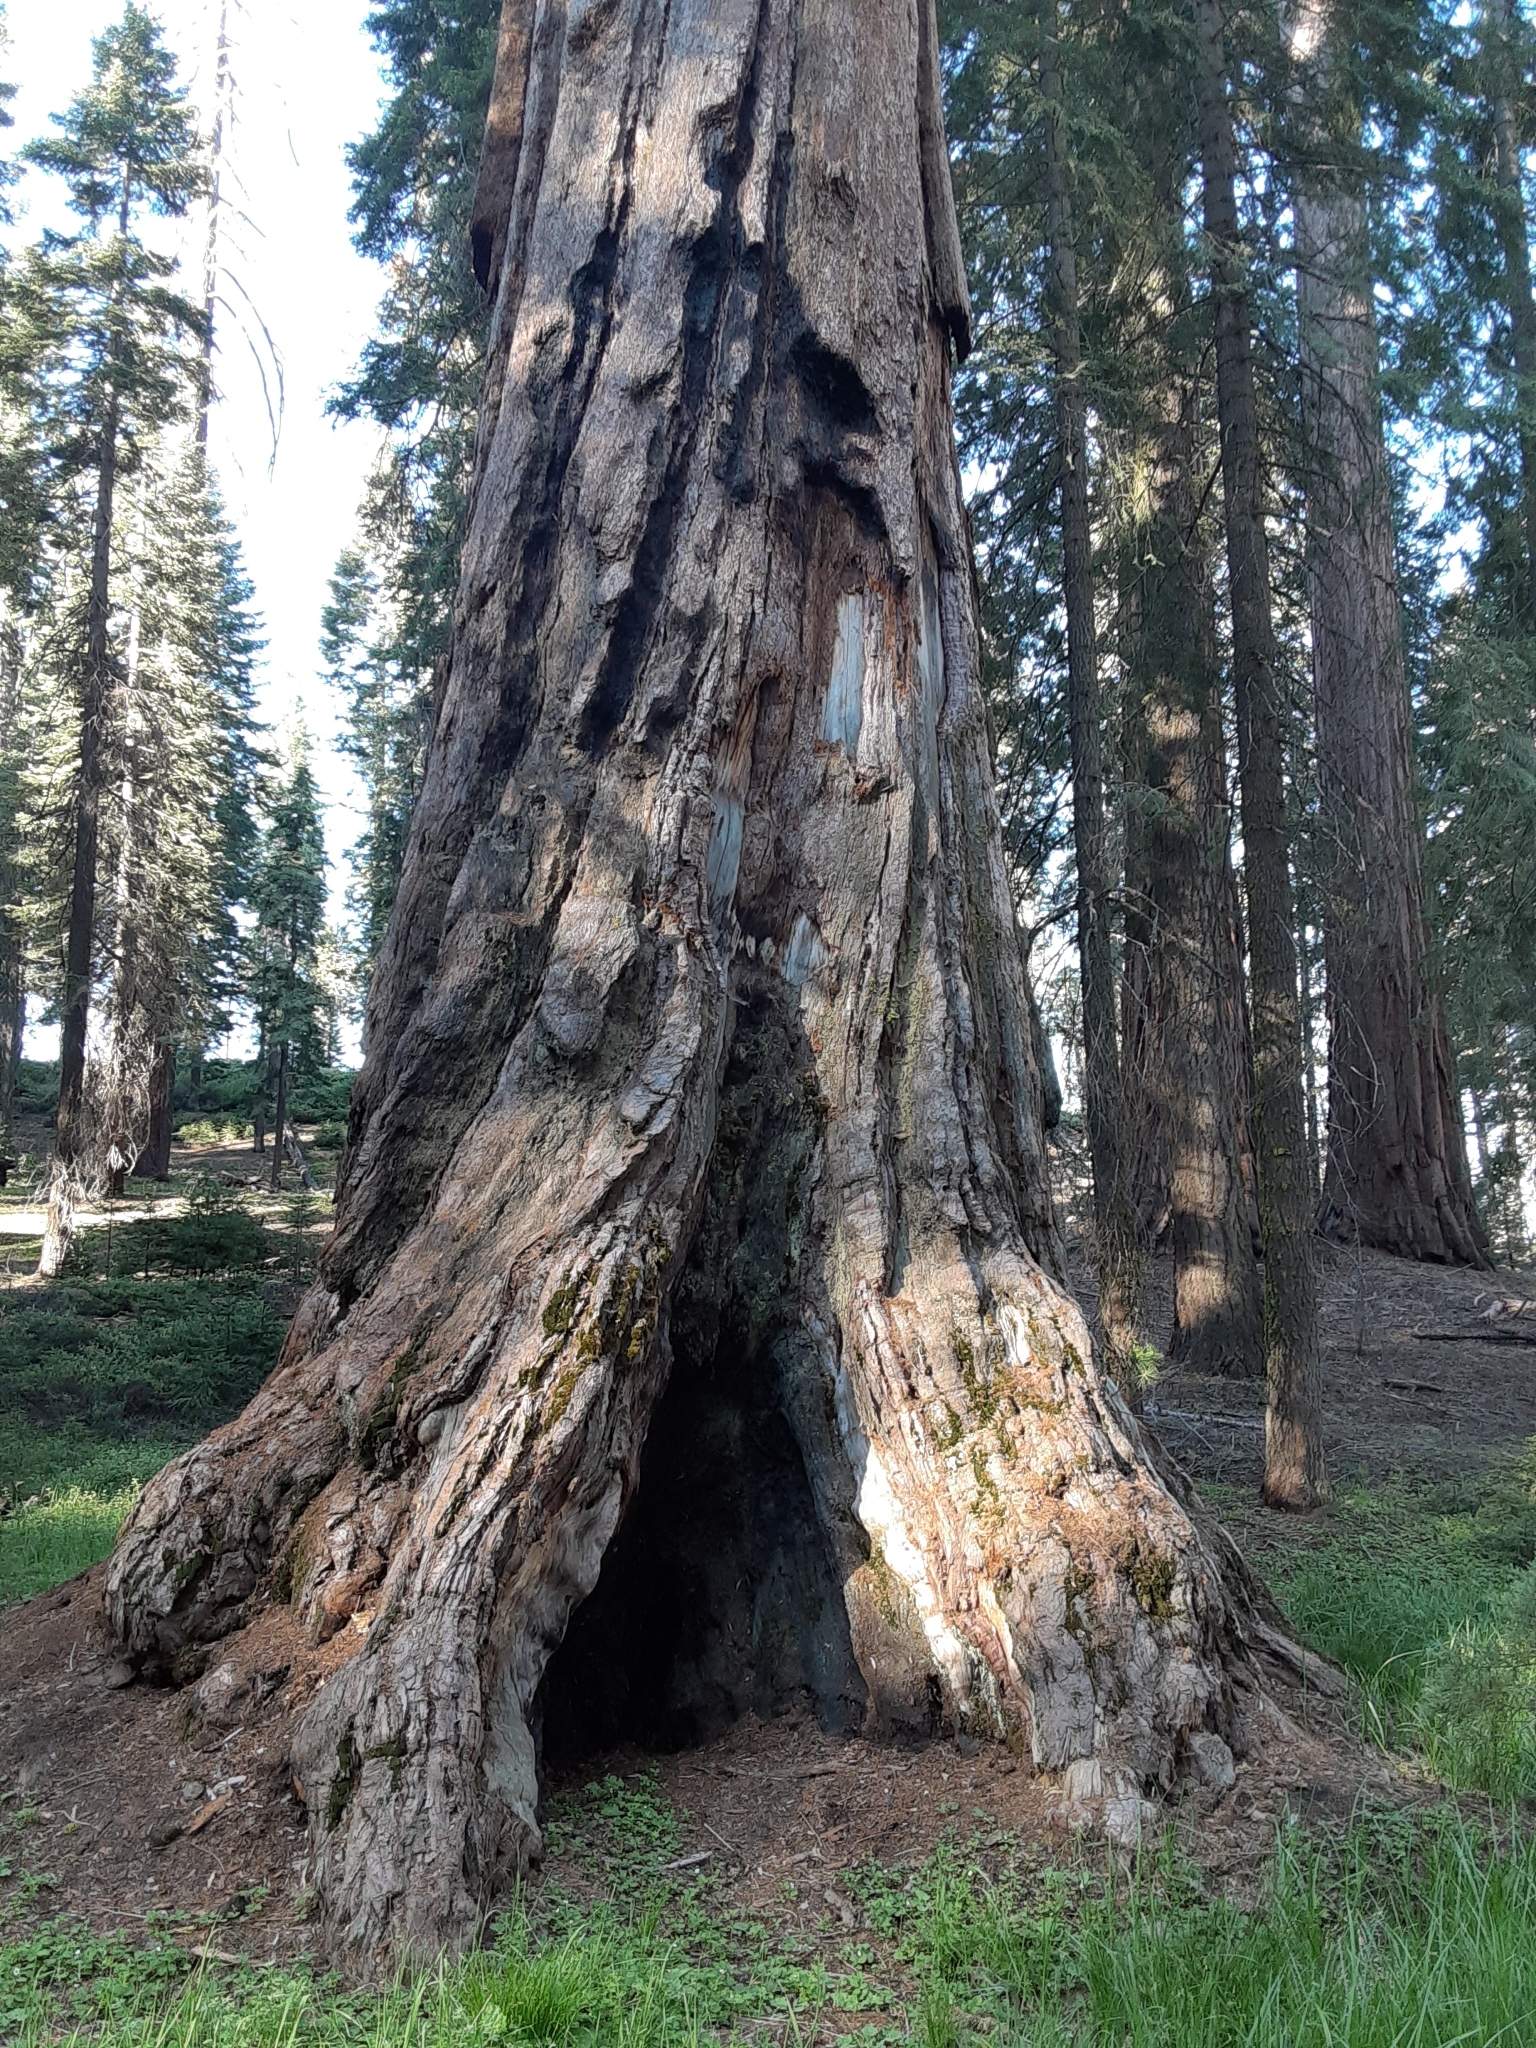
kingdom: Plantae
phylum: Tracheophyta
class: Pinopsida
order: Pinales
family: Cupressaceae
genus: Sequoiadendron
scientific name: Sequoiadendron giganteum
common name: Wellingtonia
